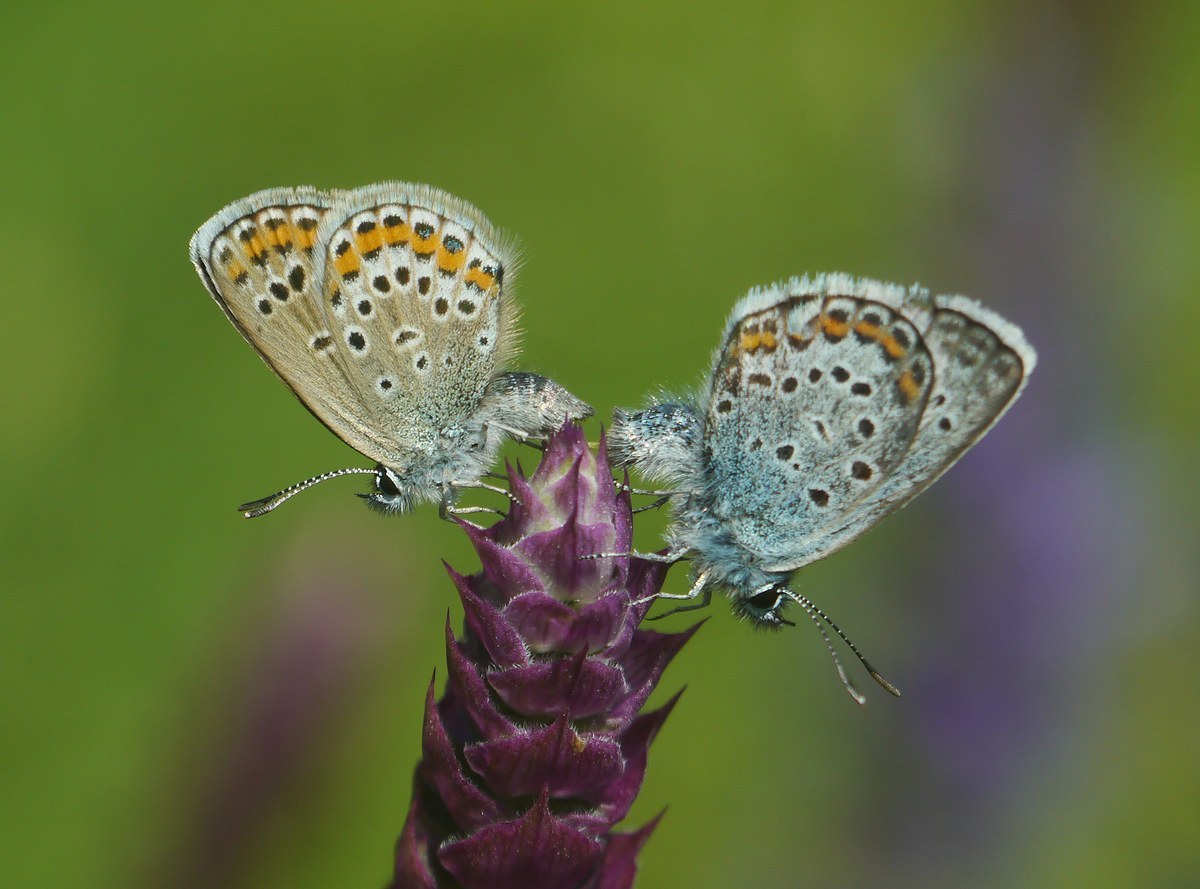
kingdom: Animalia
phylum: Arthropoda
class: Insecta
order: Lepidoptera
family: Lycaenidae
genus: Plebejus
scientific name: Plebejus argus
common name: Silver-studded blue
